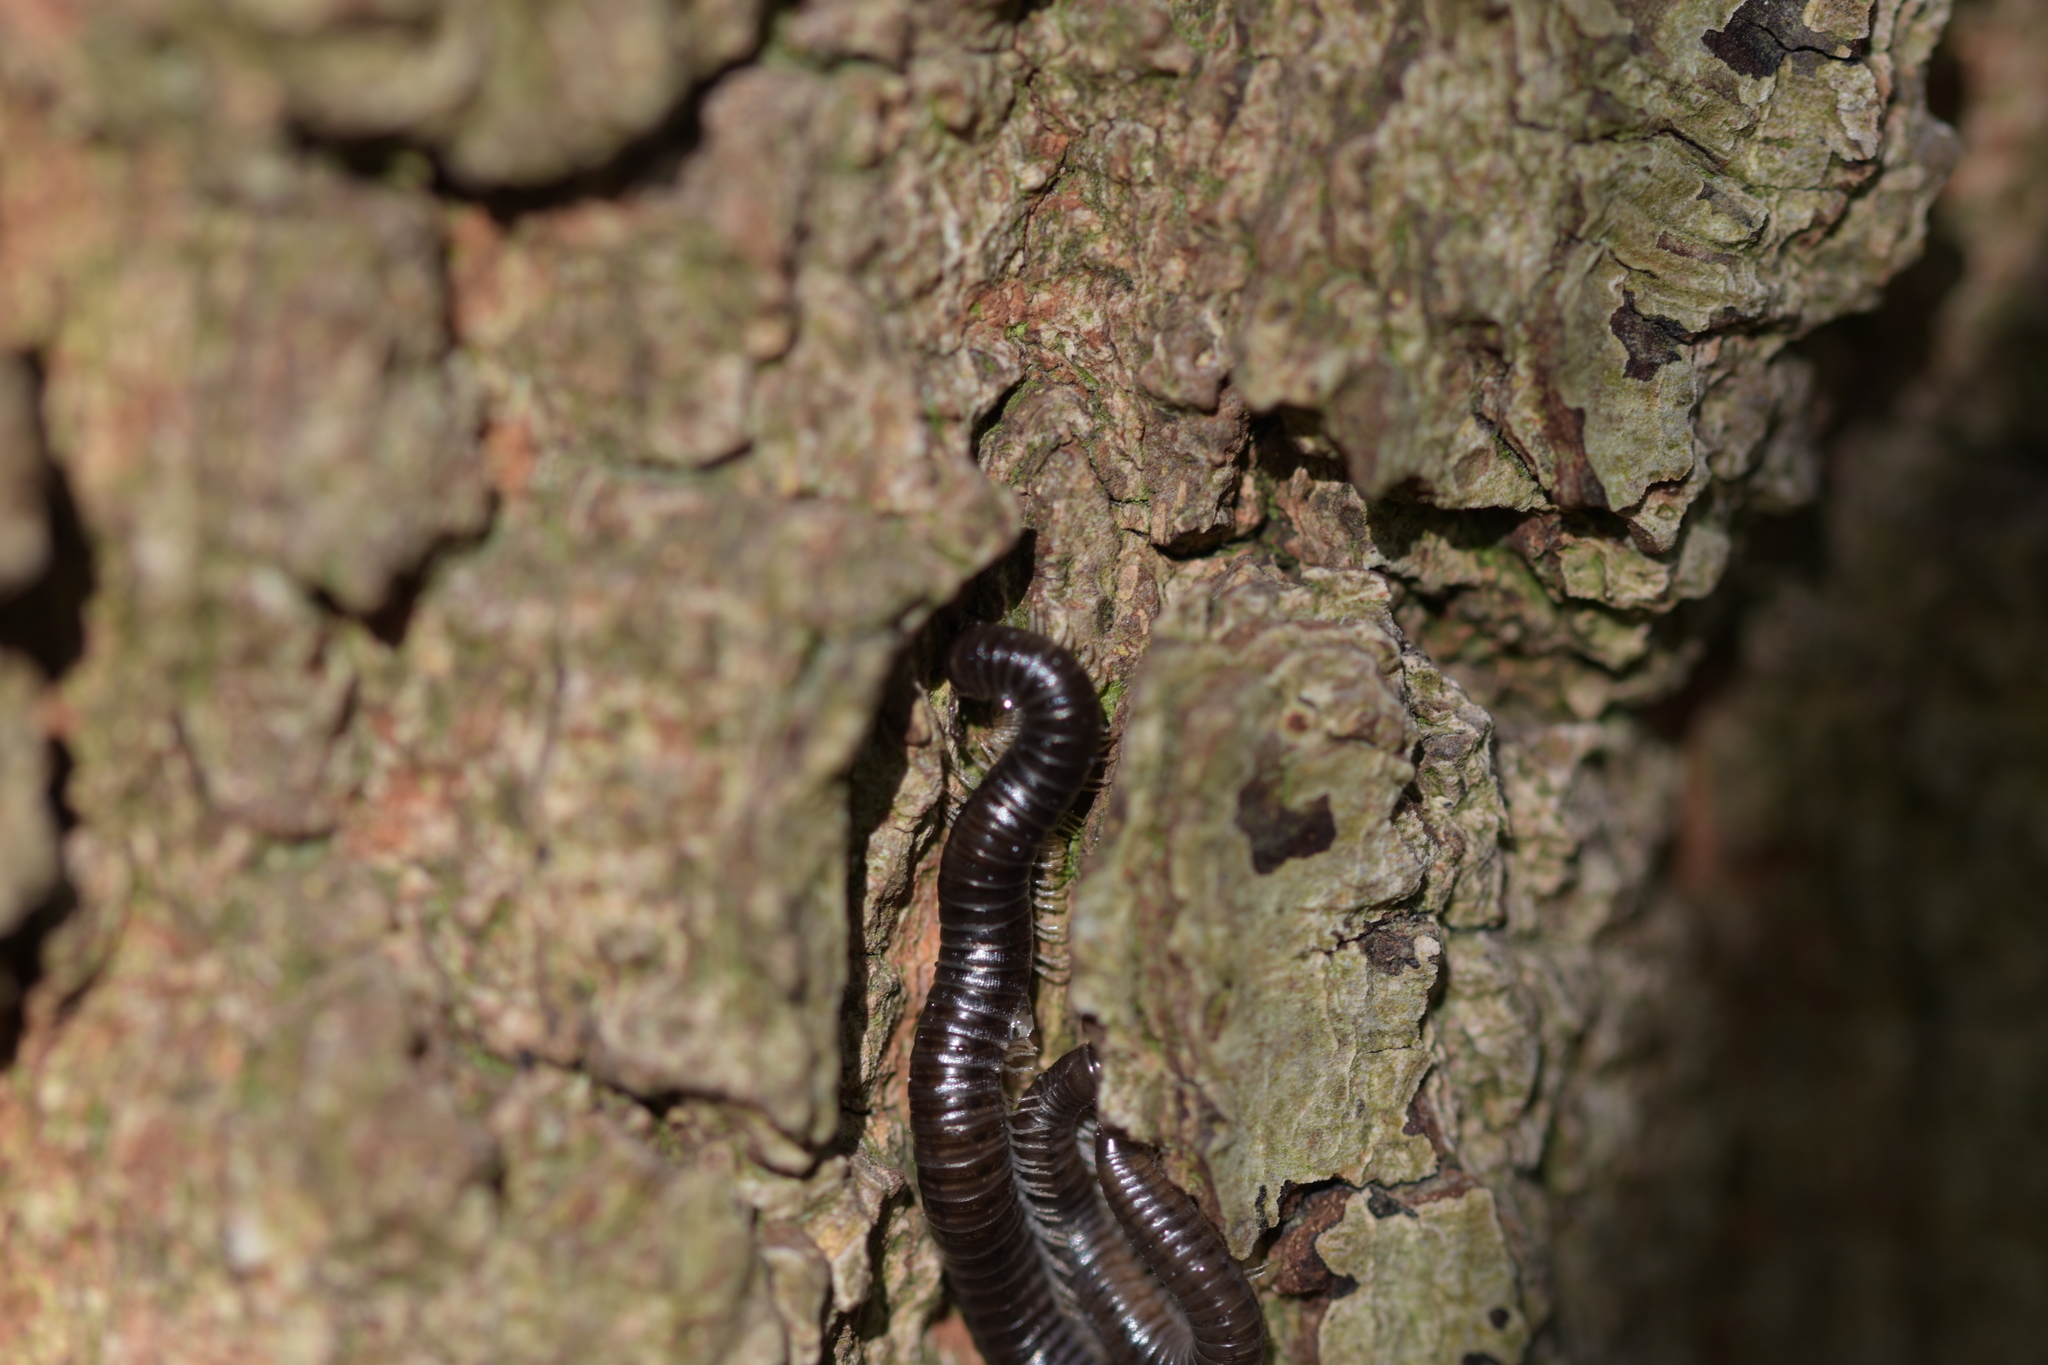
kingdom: Animalia
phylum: Arthropoda
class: Diplopoda
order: Julida
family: Julidae
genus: Tachypodoiulus
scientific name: Tachypodoiulus niger
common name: White-legged snake millipede
